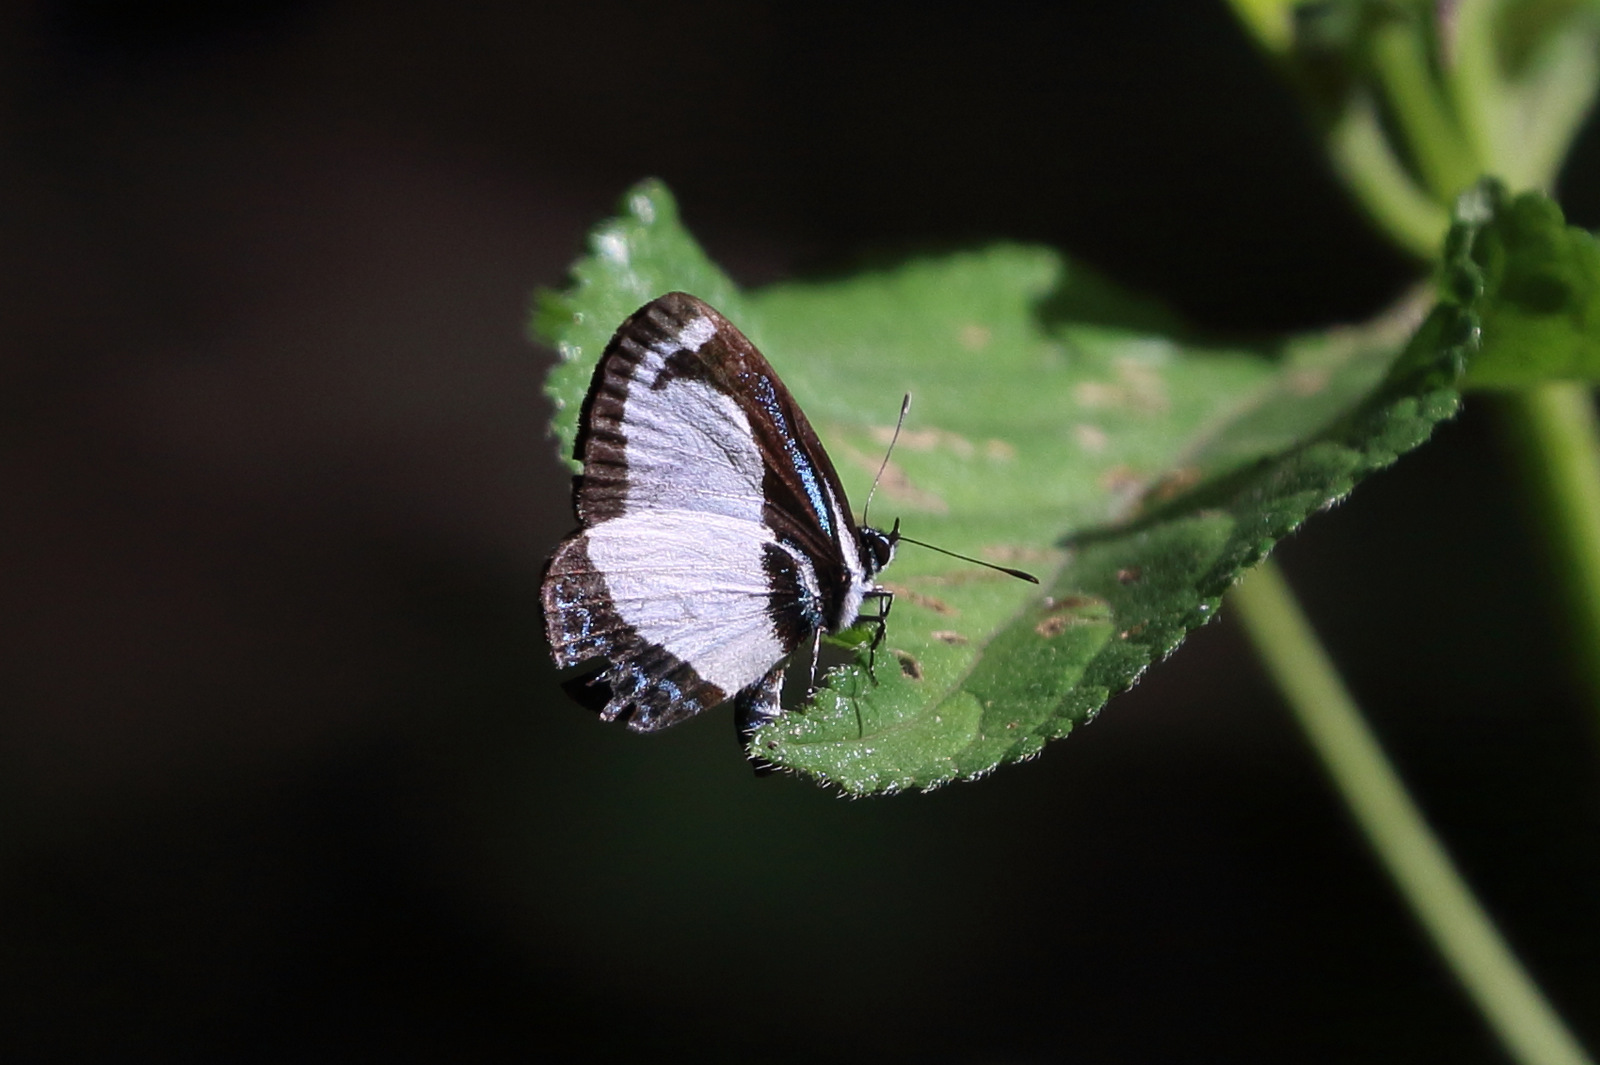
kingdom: Animalia
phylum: Arthropoda
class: Insecta
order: Lepidoptera
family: Lycaenidae
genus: Psychonotis
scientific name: Psychonotis caelius
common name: Small green banded blue
